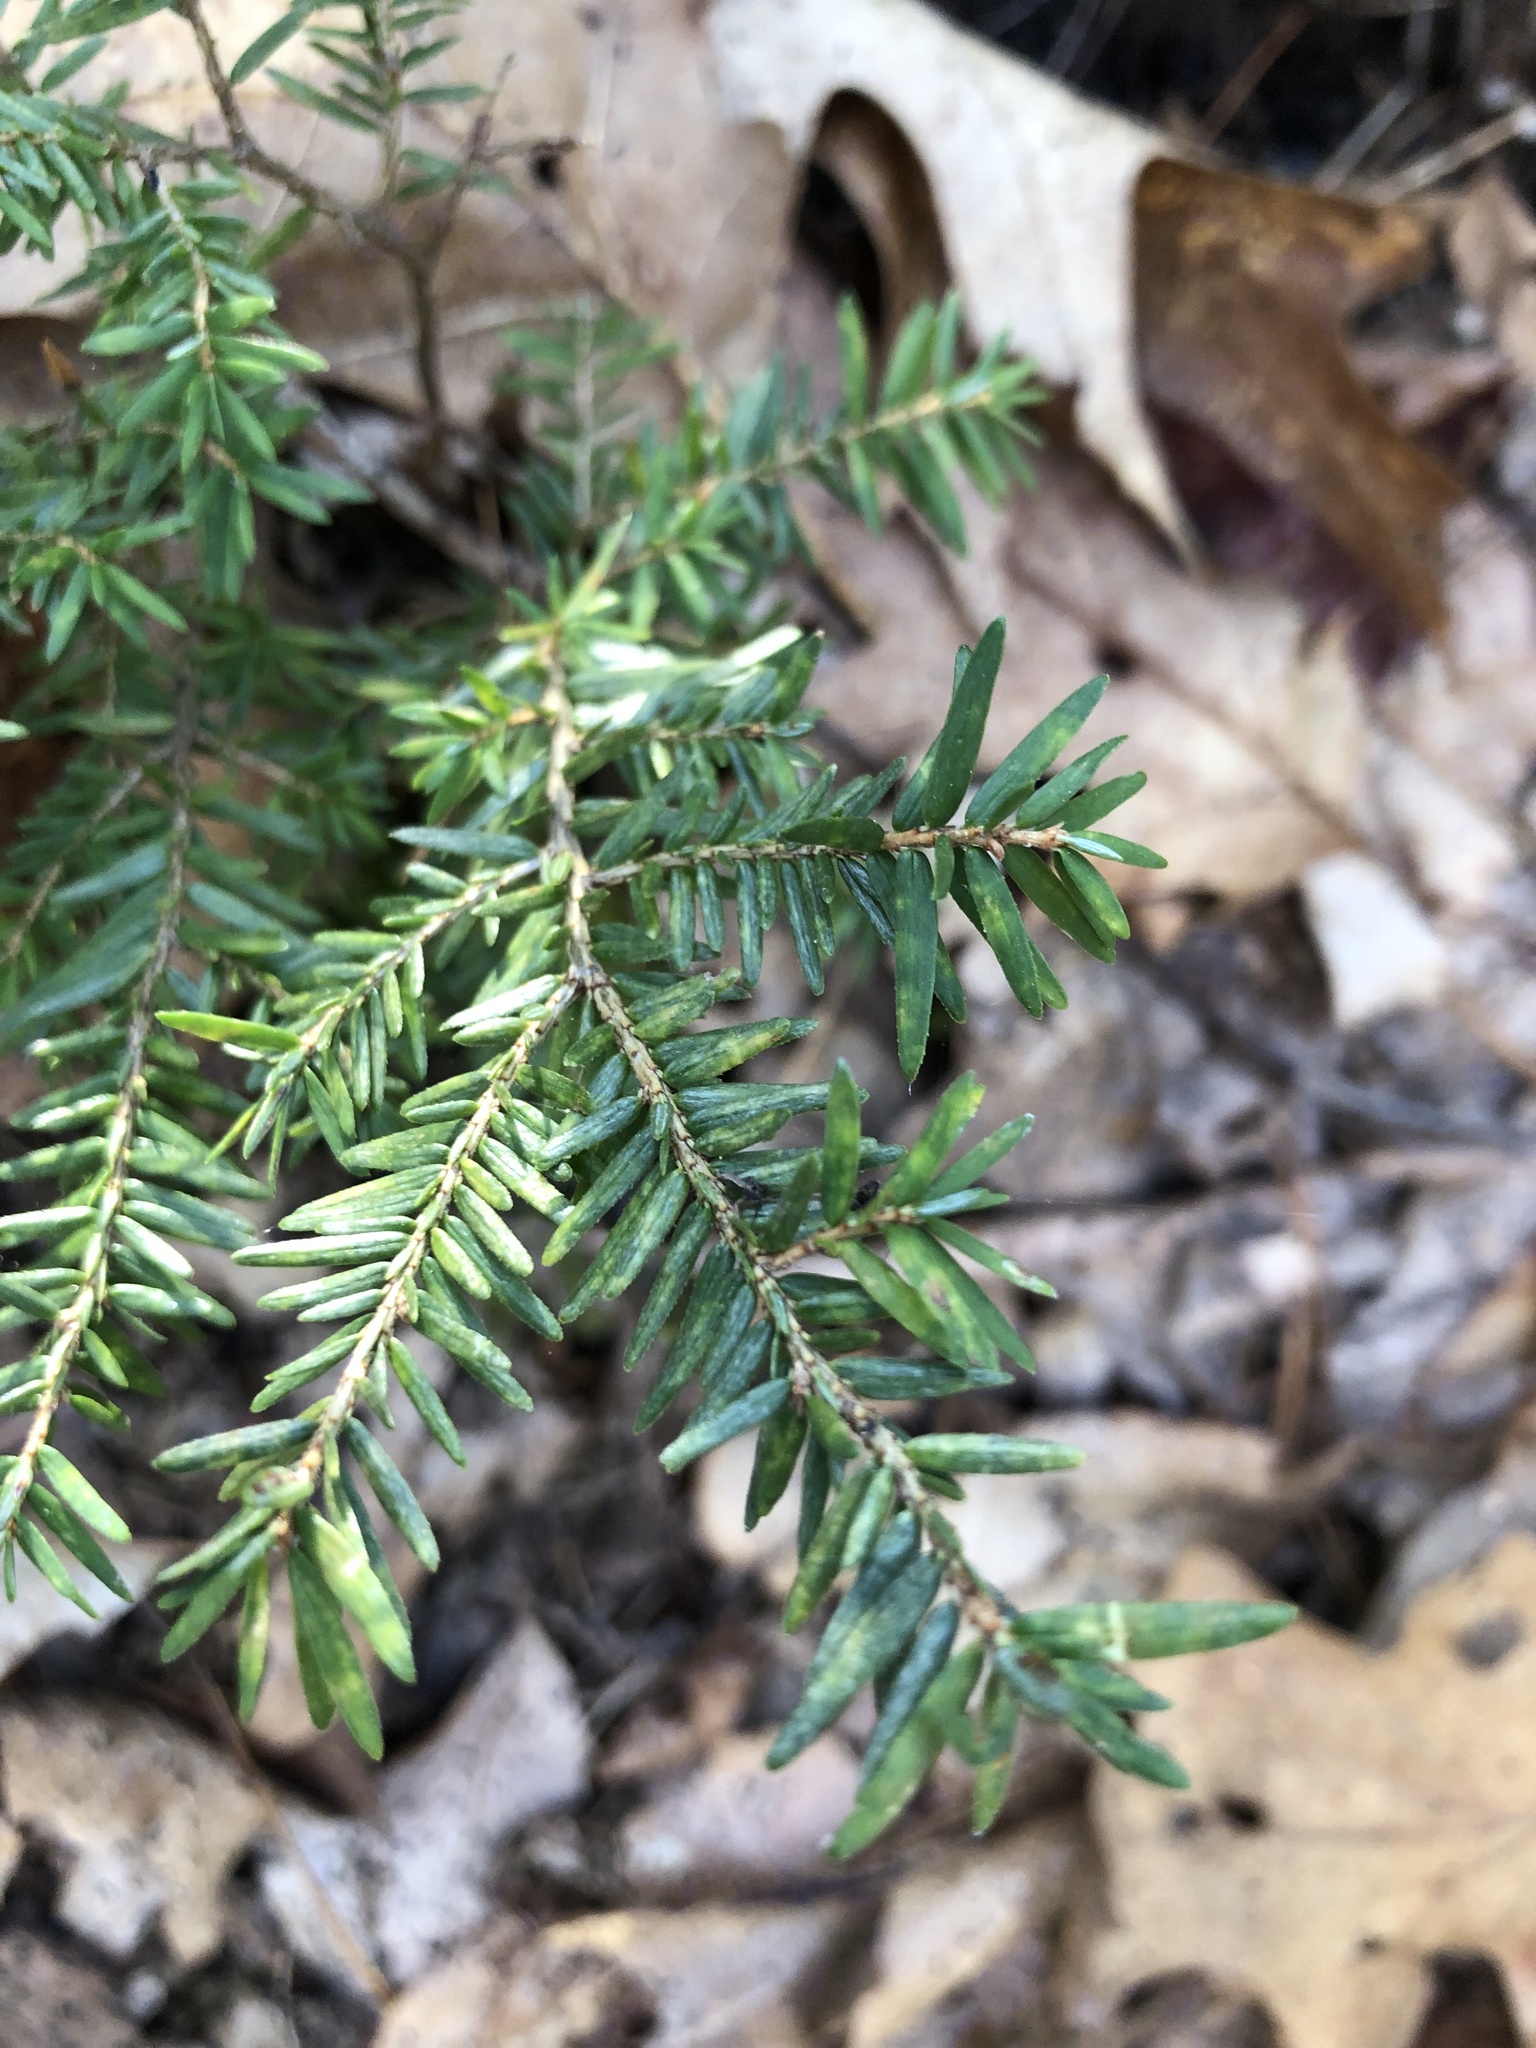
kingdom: Plantae
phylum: Tracheophyta
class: Pinopsida
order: Pinales
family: Pinaceae
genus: Tsuga
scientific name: Tsuga canadensis
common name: Eastern hemlock
